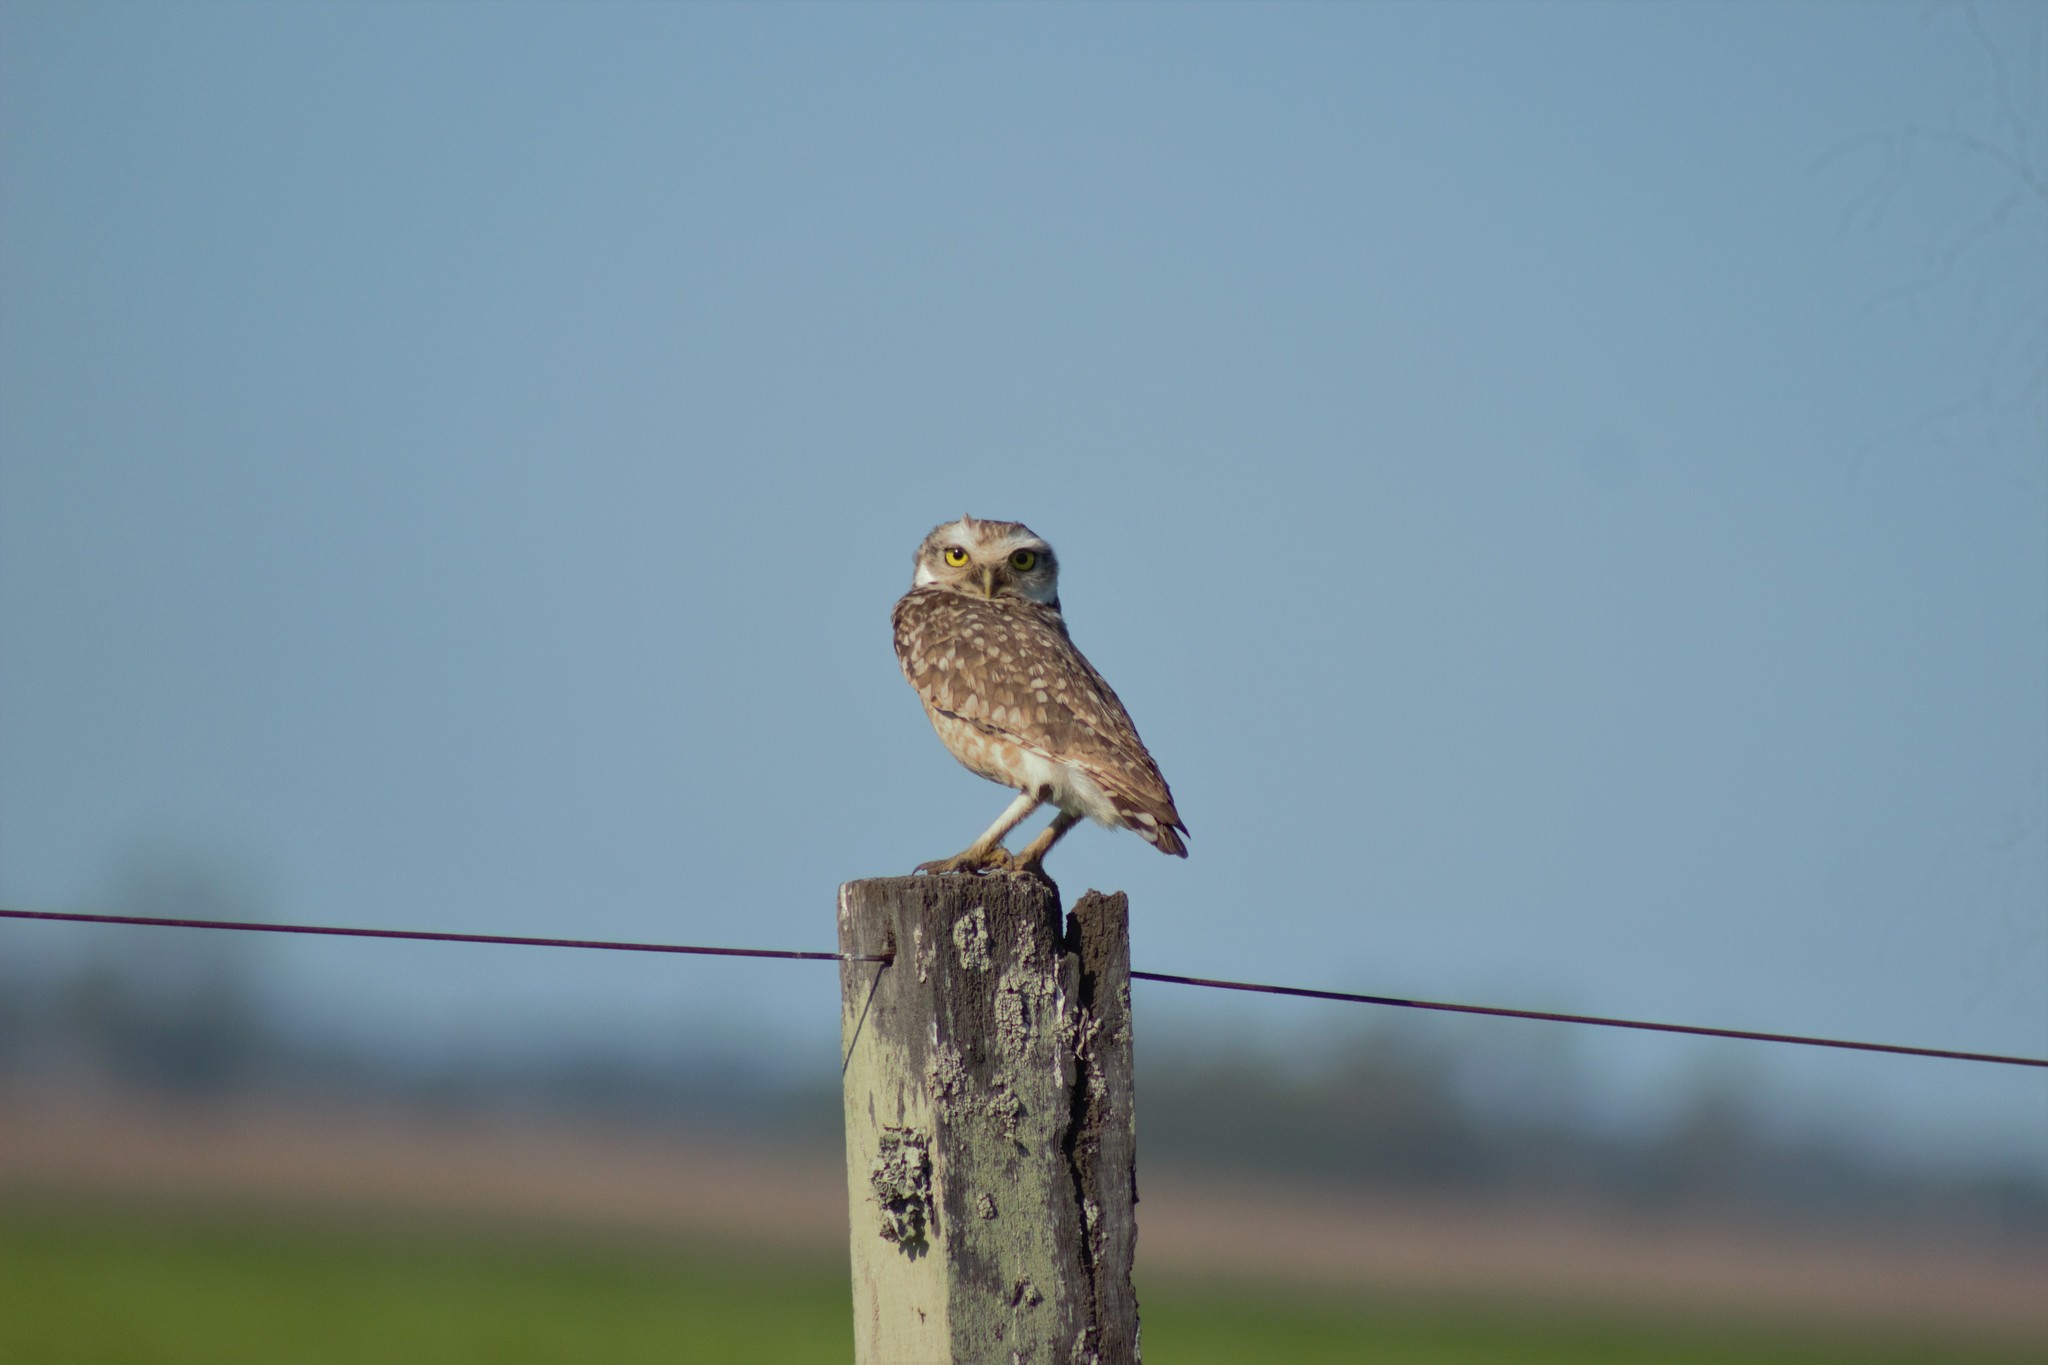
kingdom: Animalia
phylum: Chordata
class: Aves
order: Strigiformes
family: Strigidae
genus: Athene
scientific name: Athene cunicularia
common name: Burrowing owl
